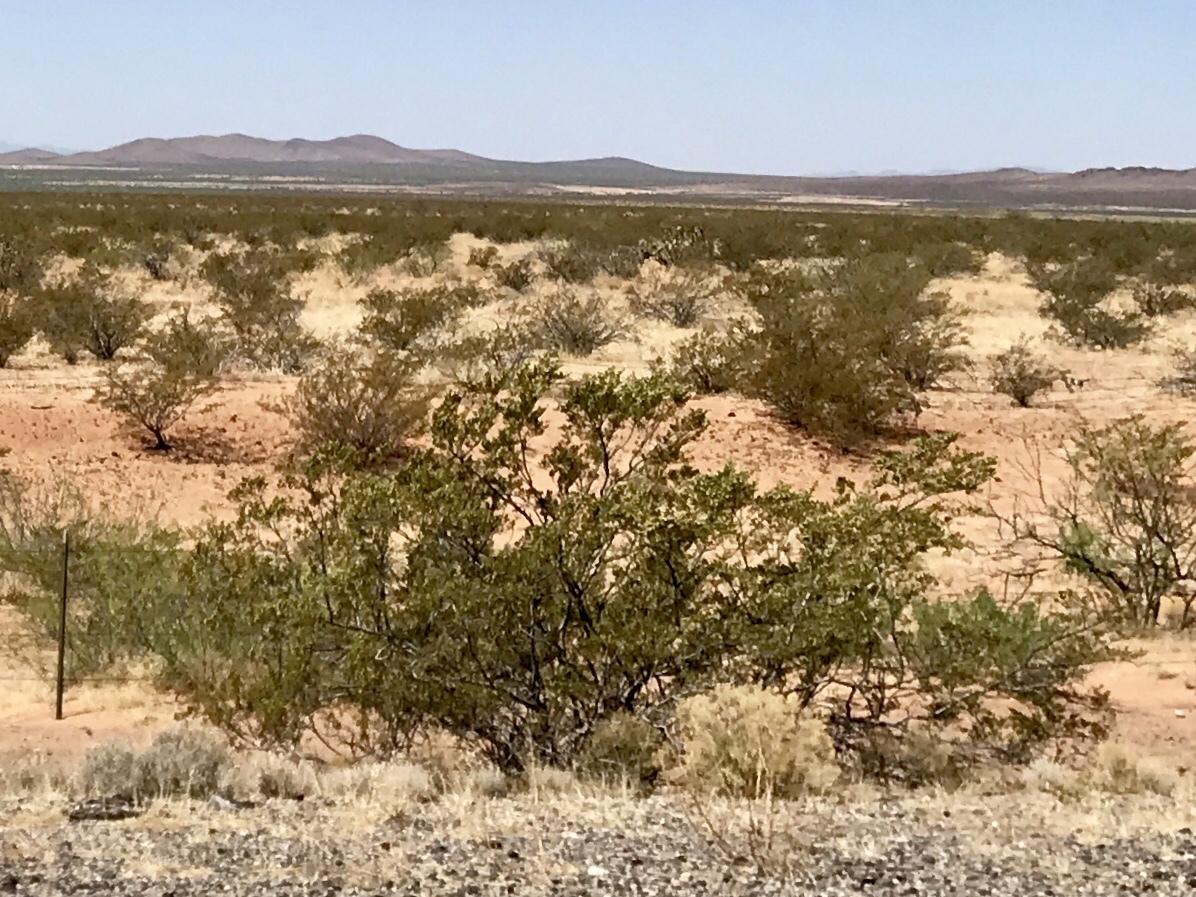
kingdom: Plantae
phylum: Tracheophyta
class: Magnoliopsida
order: Zygophyllales
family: Zygophyllaceae
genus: Larrea
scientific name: Larrea tridentata
